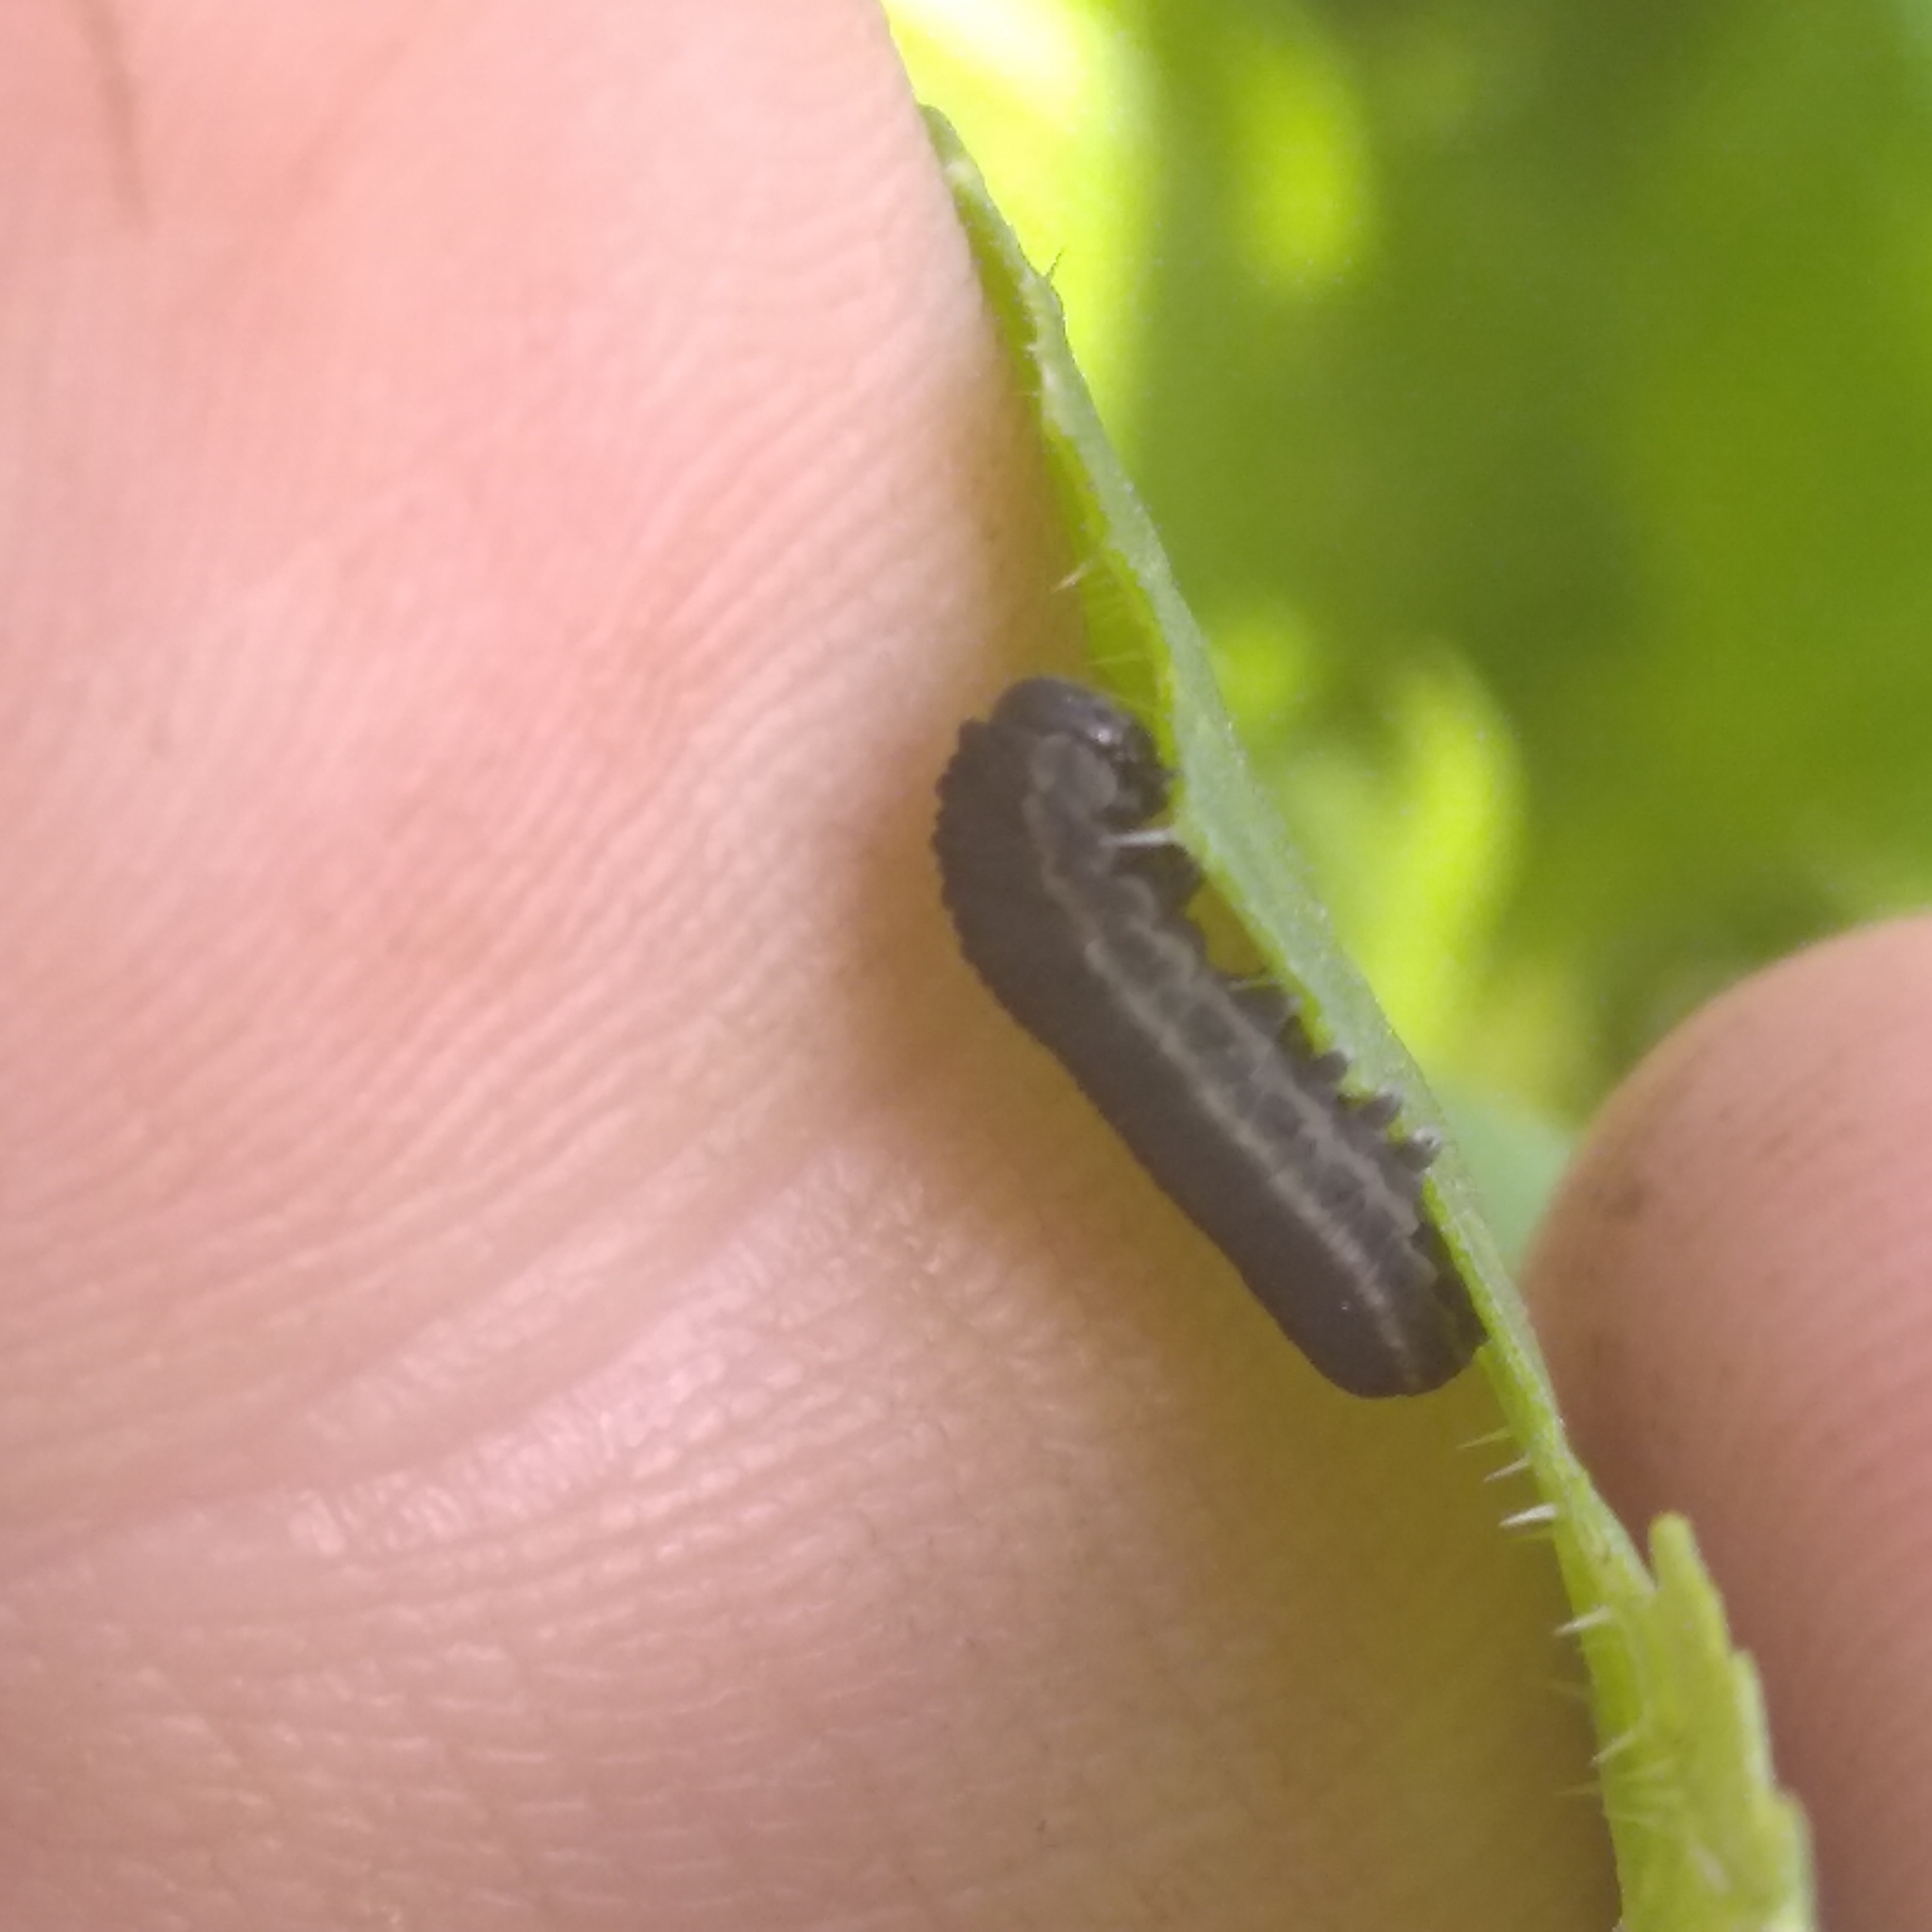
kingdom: Animalia
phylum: Arthropoda
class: Insecta
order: Hymenoptera
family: Tenthredinidae
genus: Athalia
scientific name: Athalia rosae
